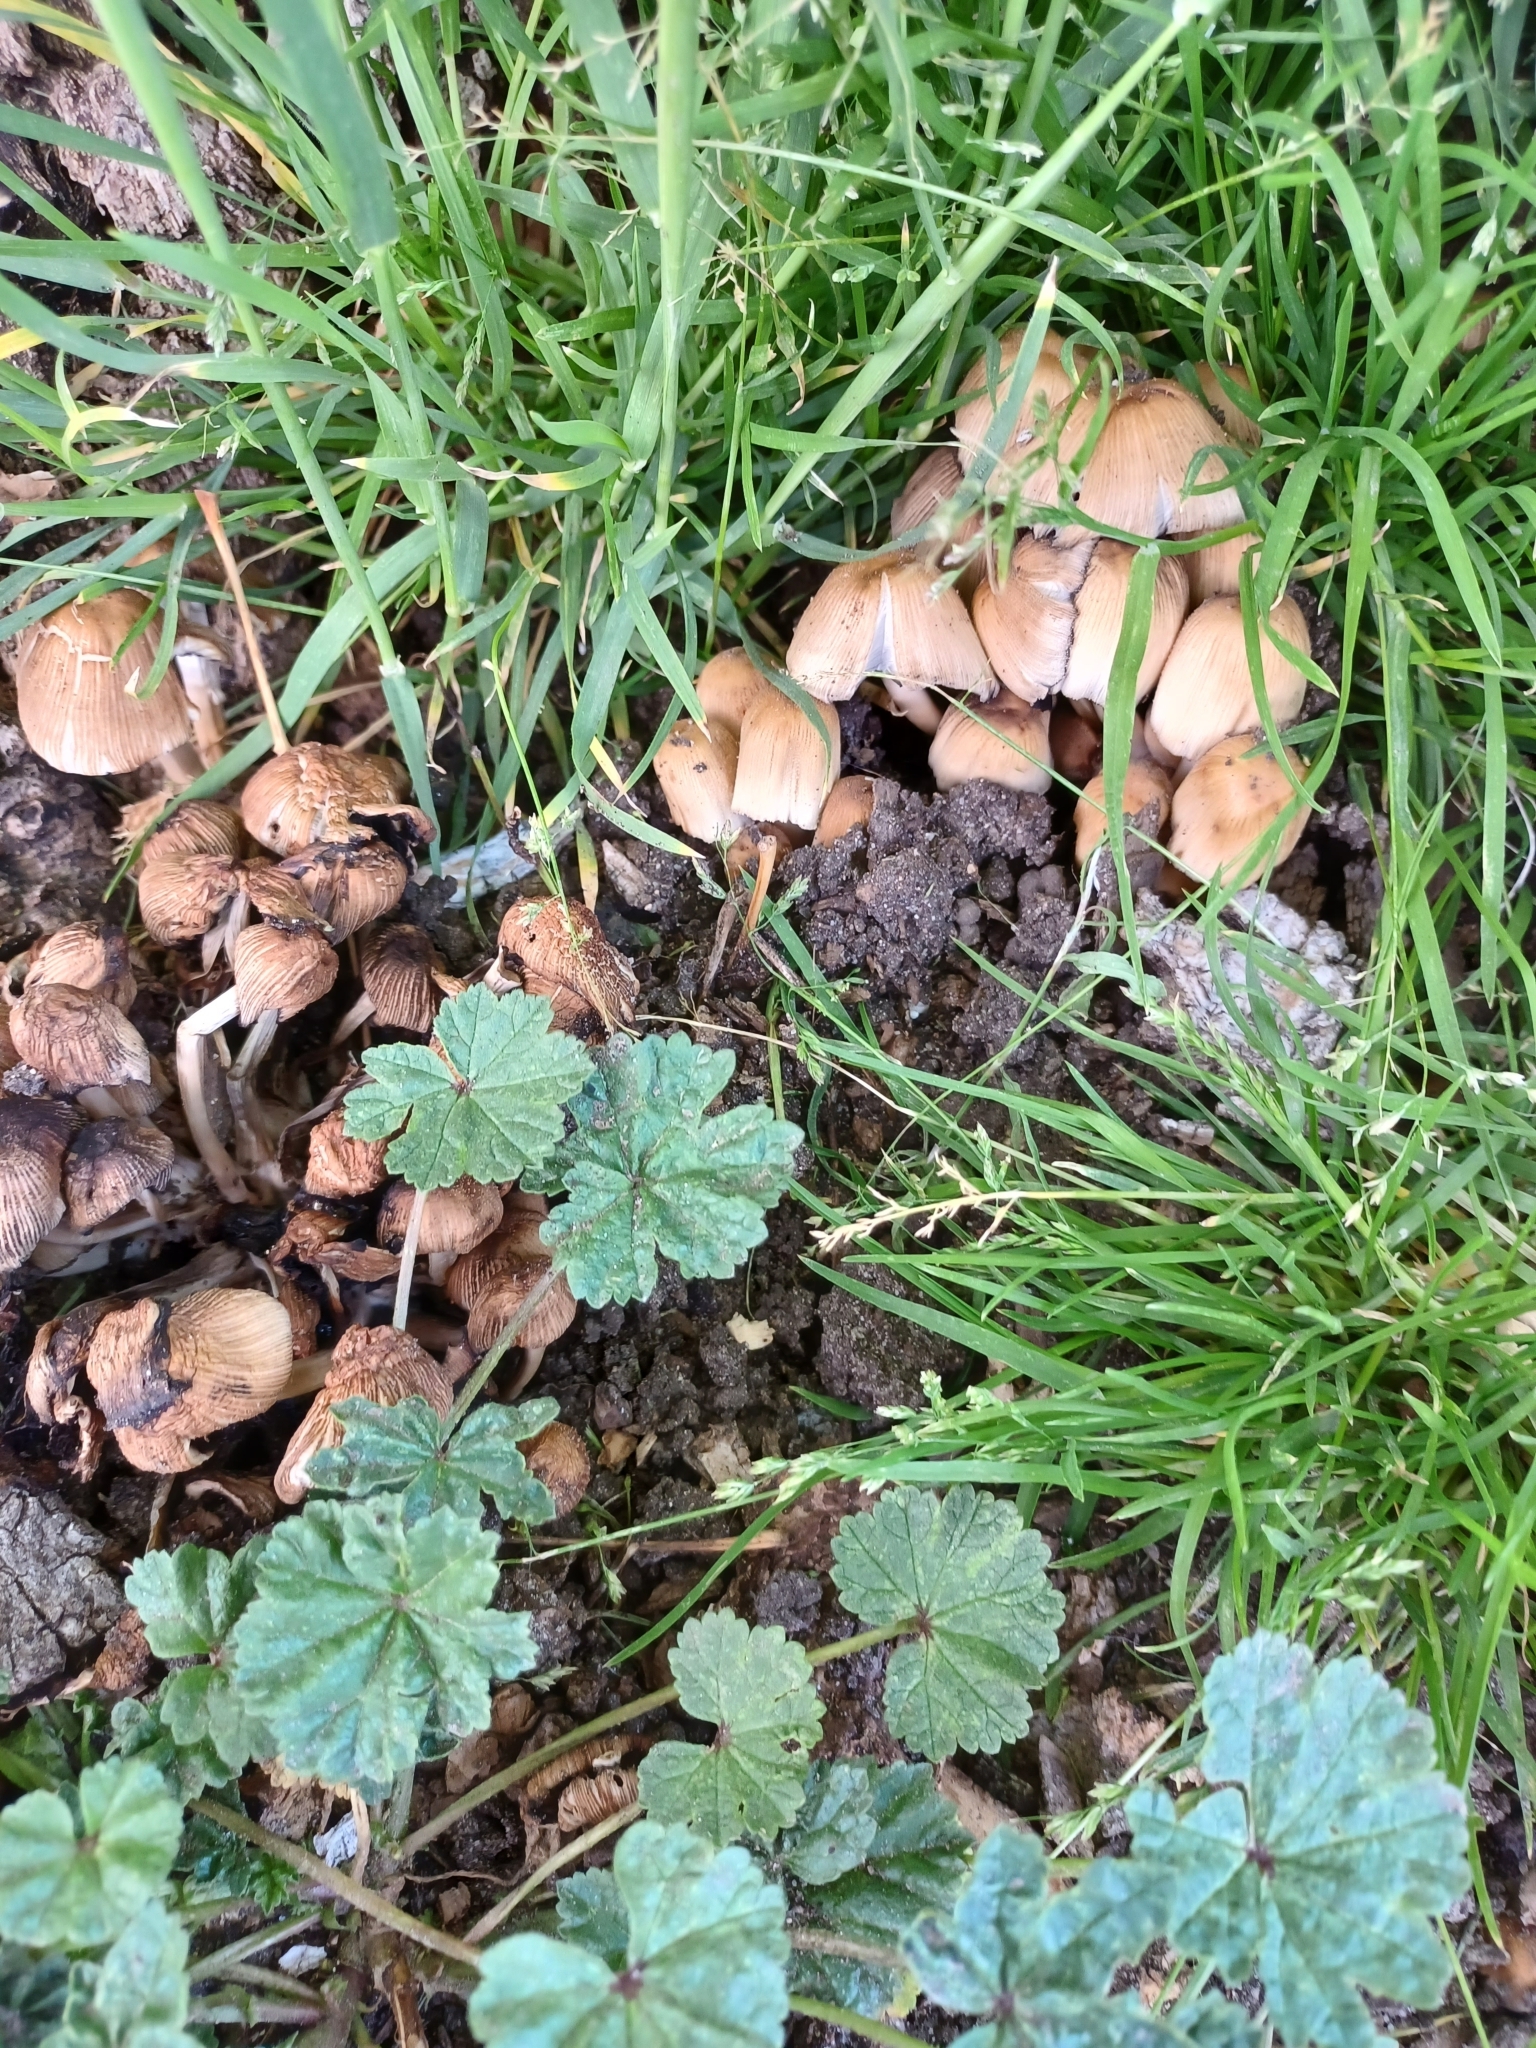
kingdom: Fungi
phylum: Basidiomycota
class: Agaricomycetes
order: Agaricales
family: Psathyrellaceae
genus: Coprinellus
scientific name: Coprinellus micaceus
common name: Glistening ink-cap
